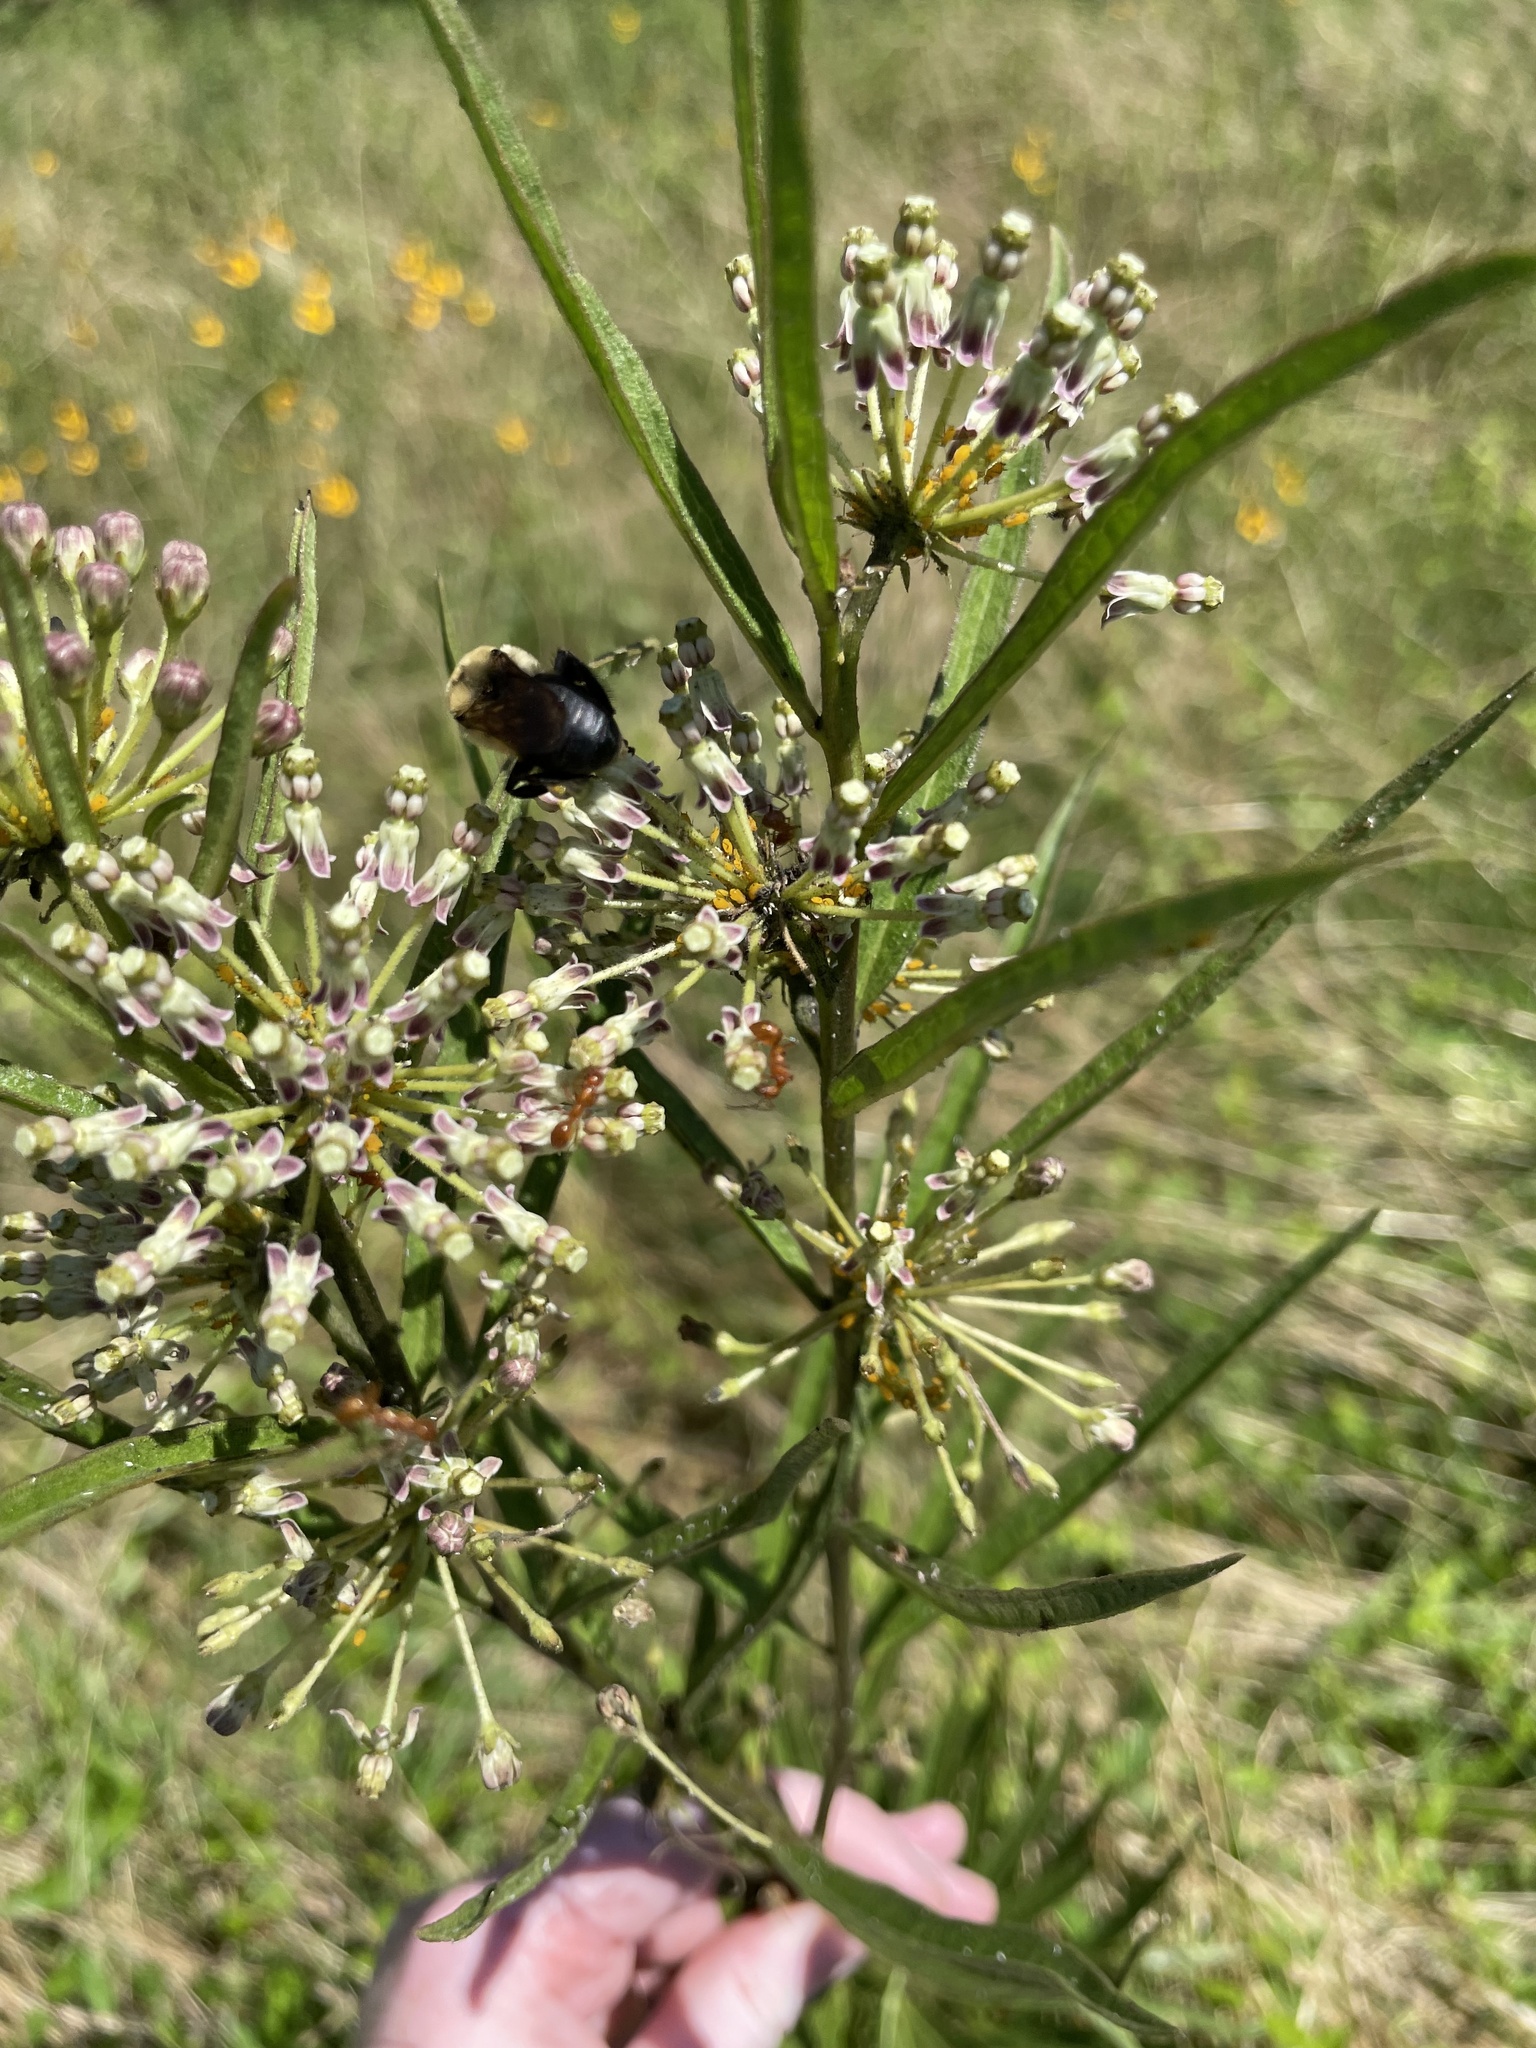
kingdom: Animalia
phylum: Arthropoda
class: Insecta
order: Hymenoptera
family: Apidae
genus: Bombus
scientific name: Bombus griseocollis
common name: Brown-belted bumble bee
